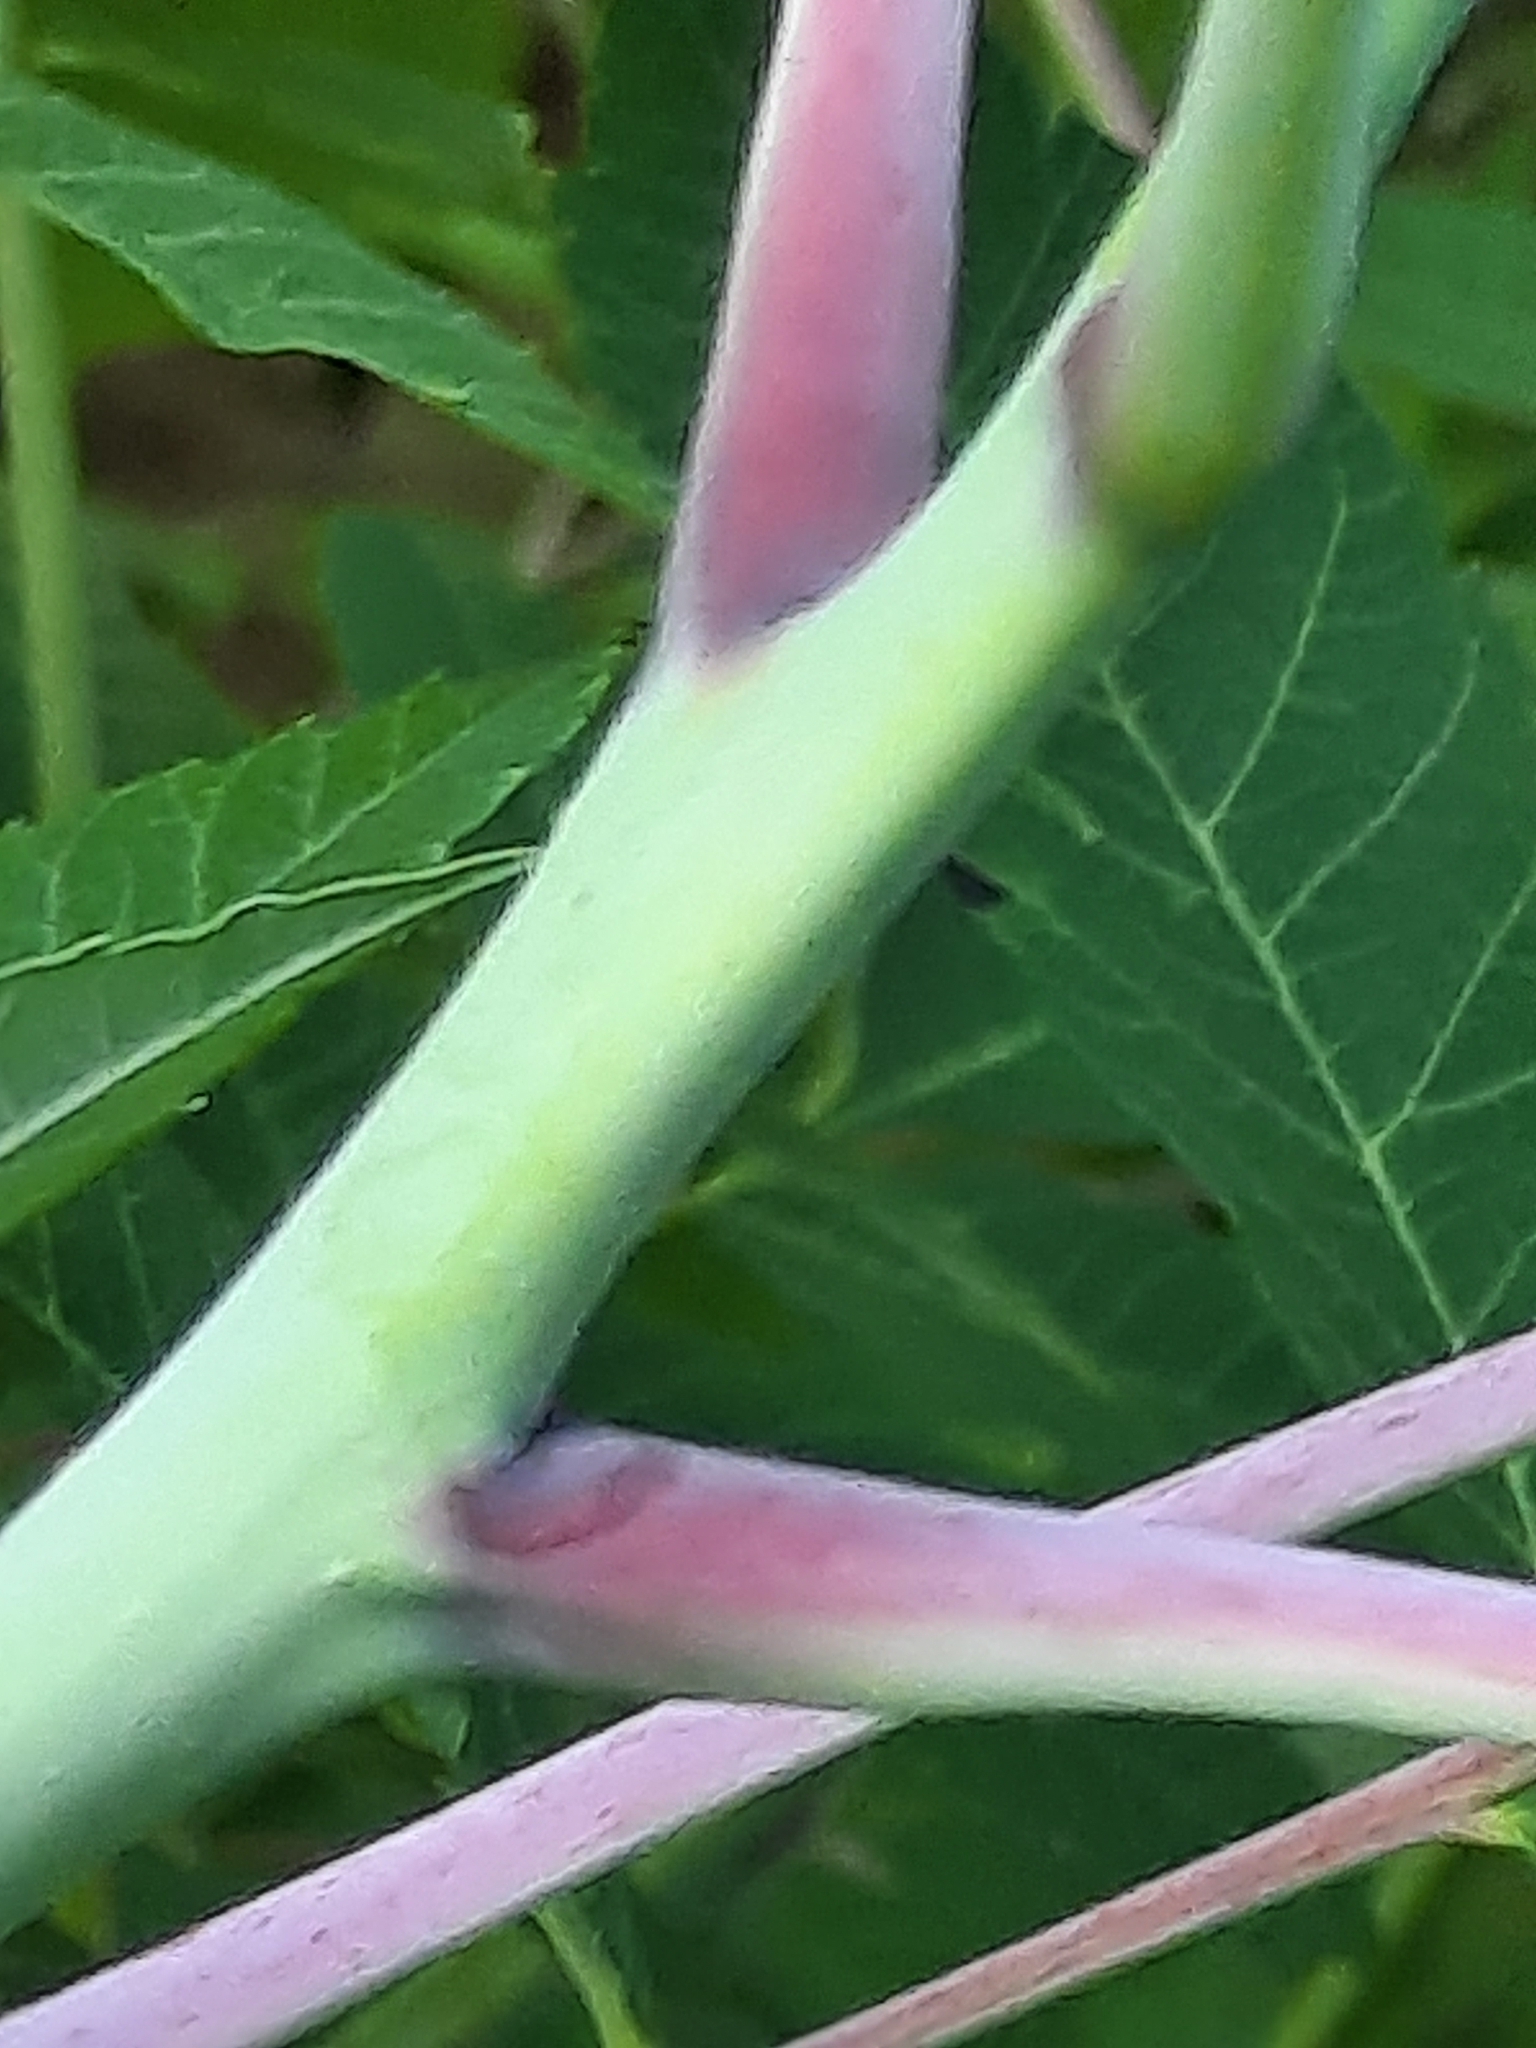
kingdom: Plantae
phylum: Tracheophyta
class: Magnoliopsida
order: Sapindales
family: Anacardiaceae
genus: Rhus
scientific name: Rhus glabra
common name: Scarlet sumac
